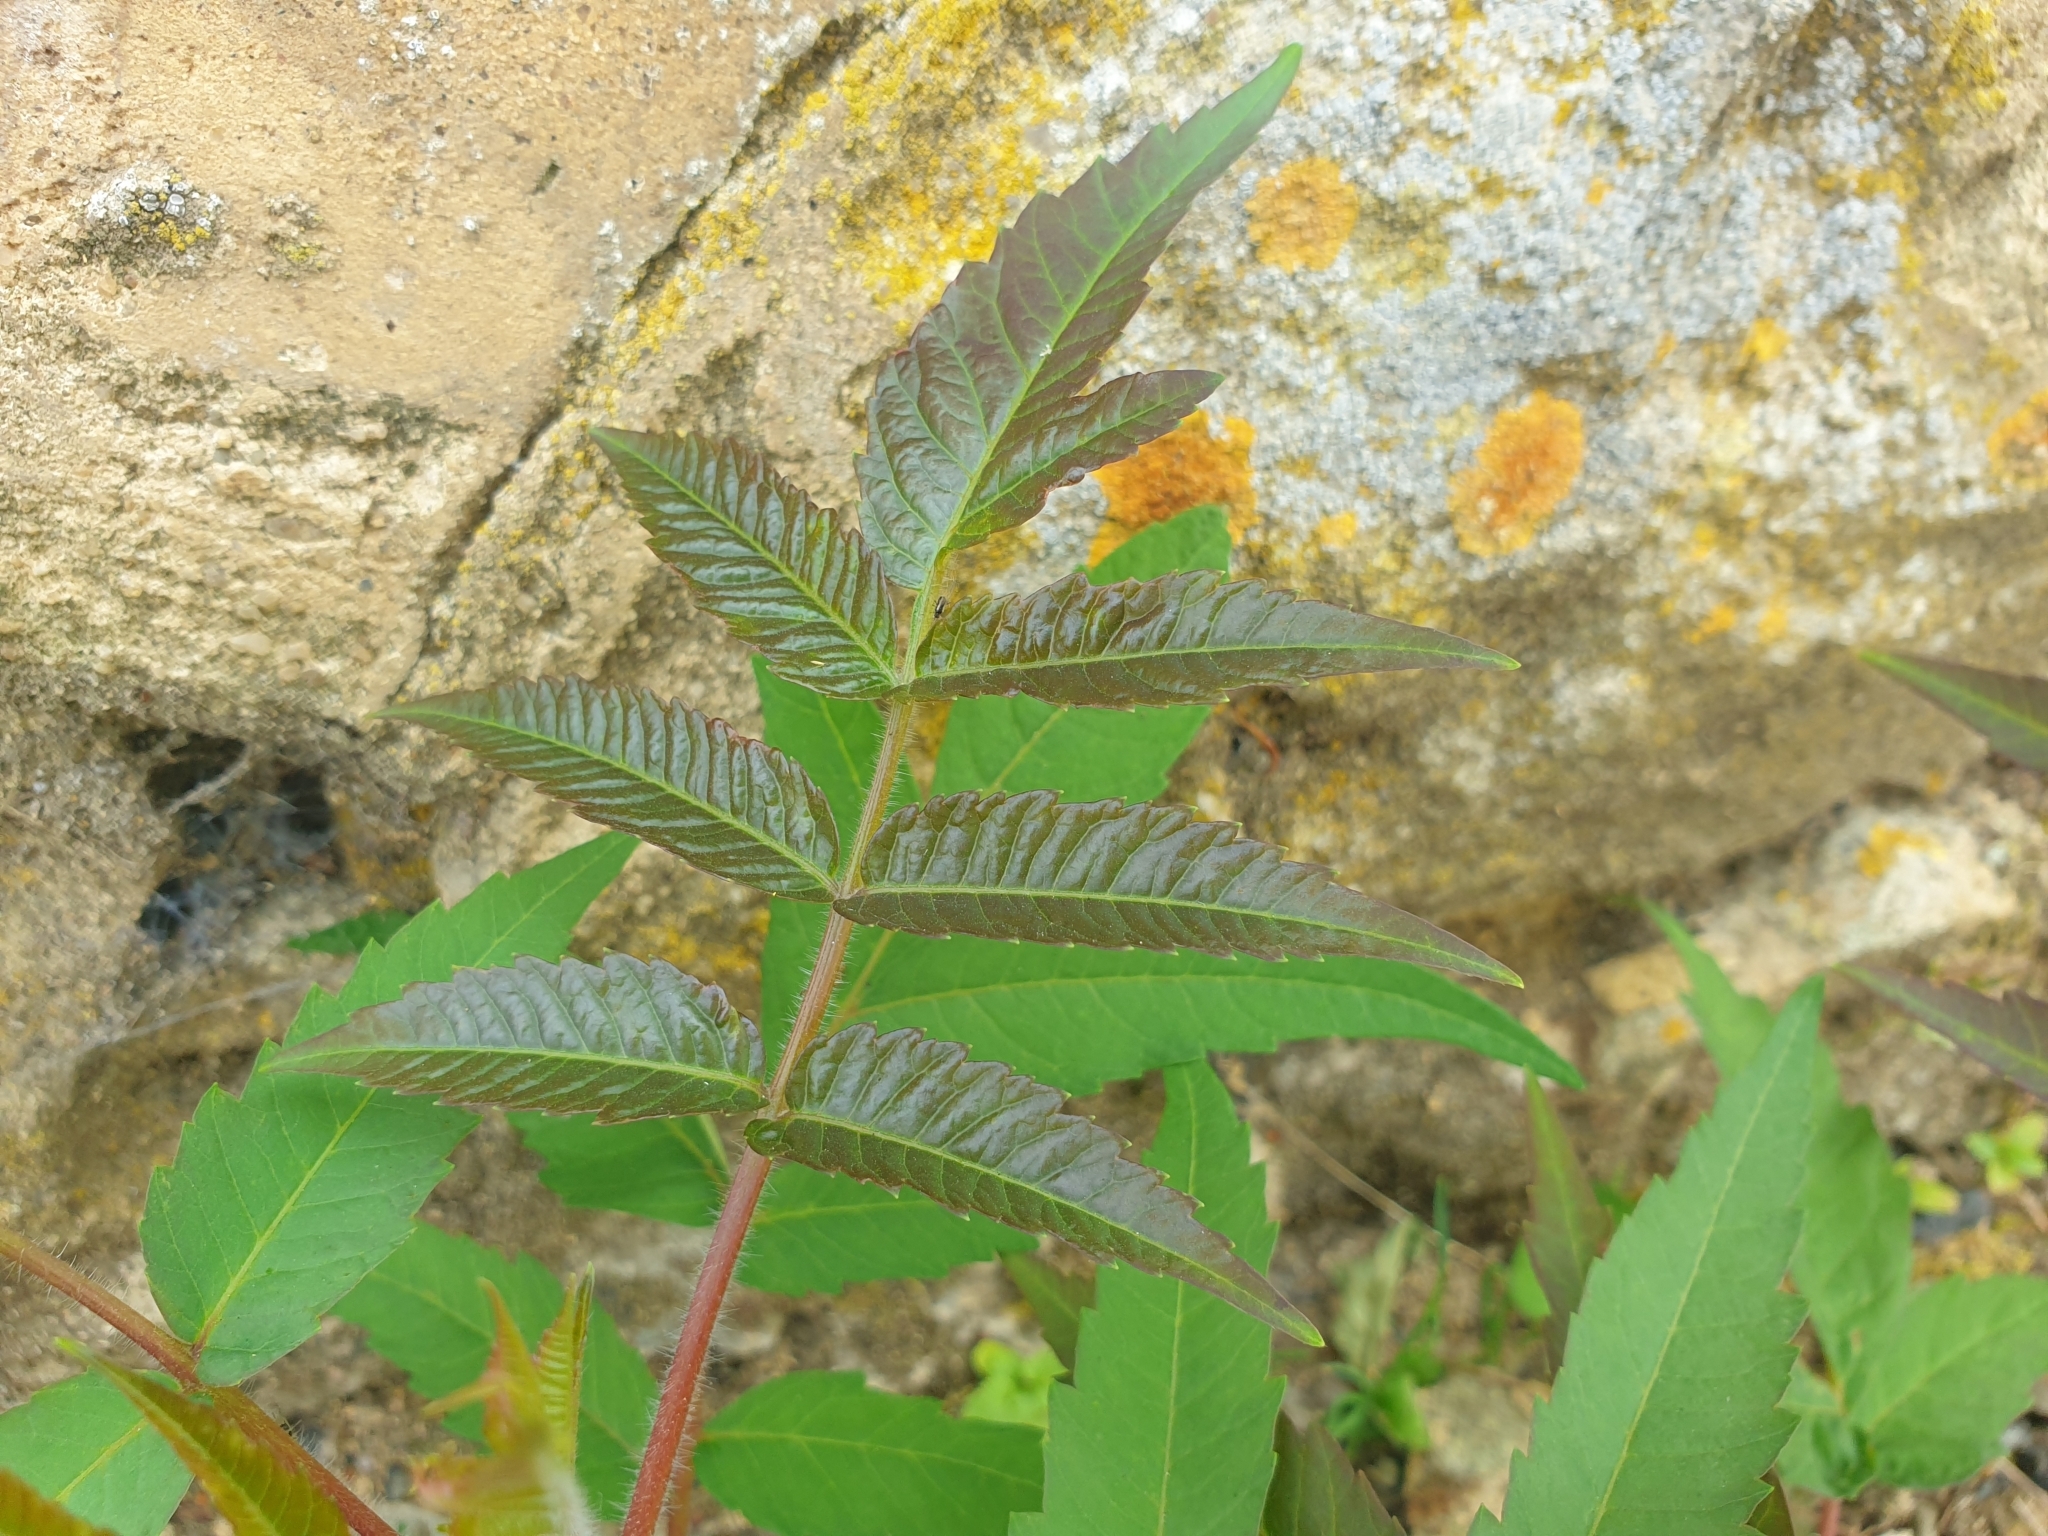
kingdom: Plantae
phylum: Tracheophyta
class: Magnoliopsida
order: Sapindales
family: Anacardiaceae
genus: Rhus
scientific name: Rhus typhina
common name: Staghorn sumac
